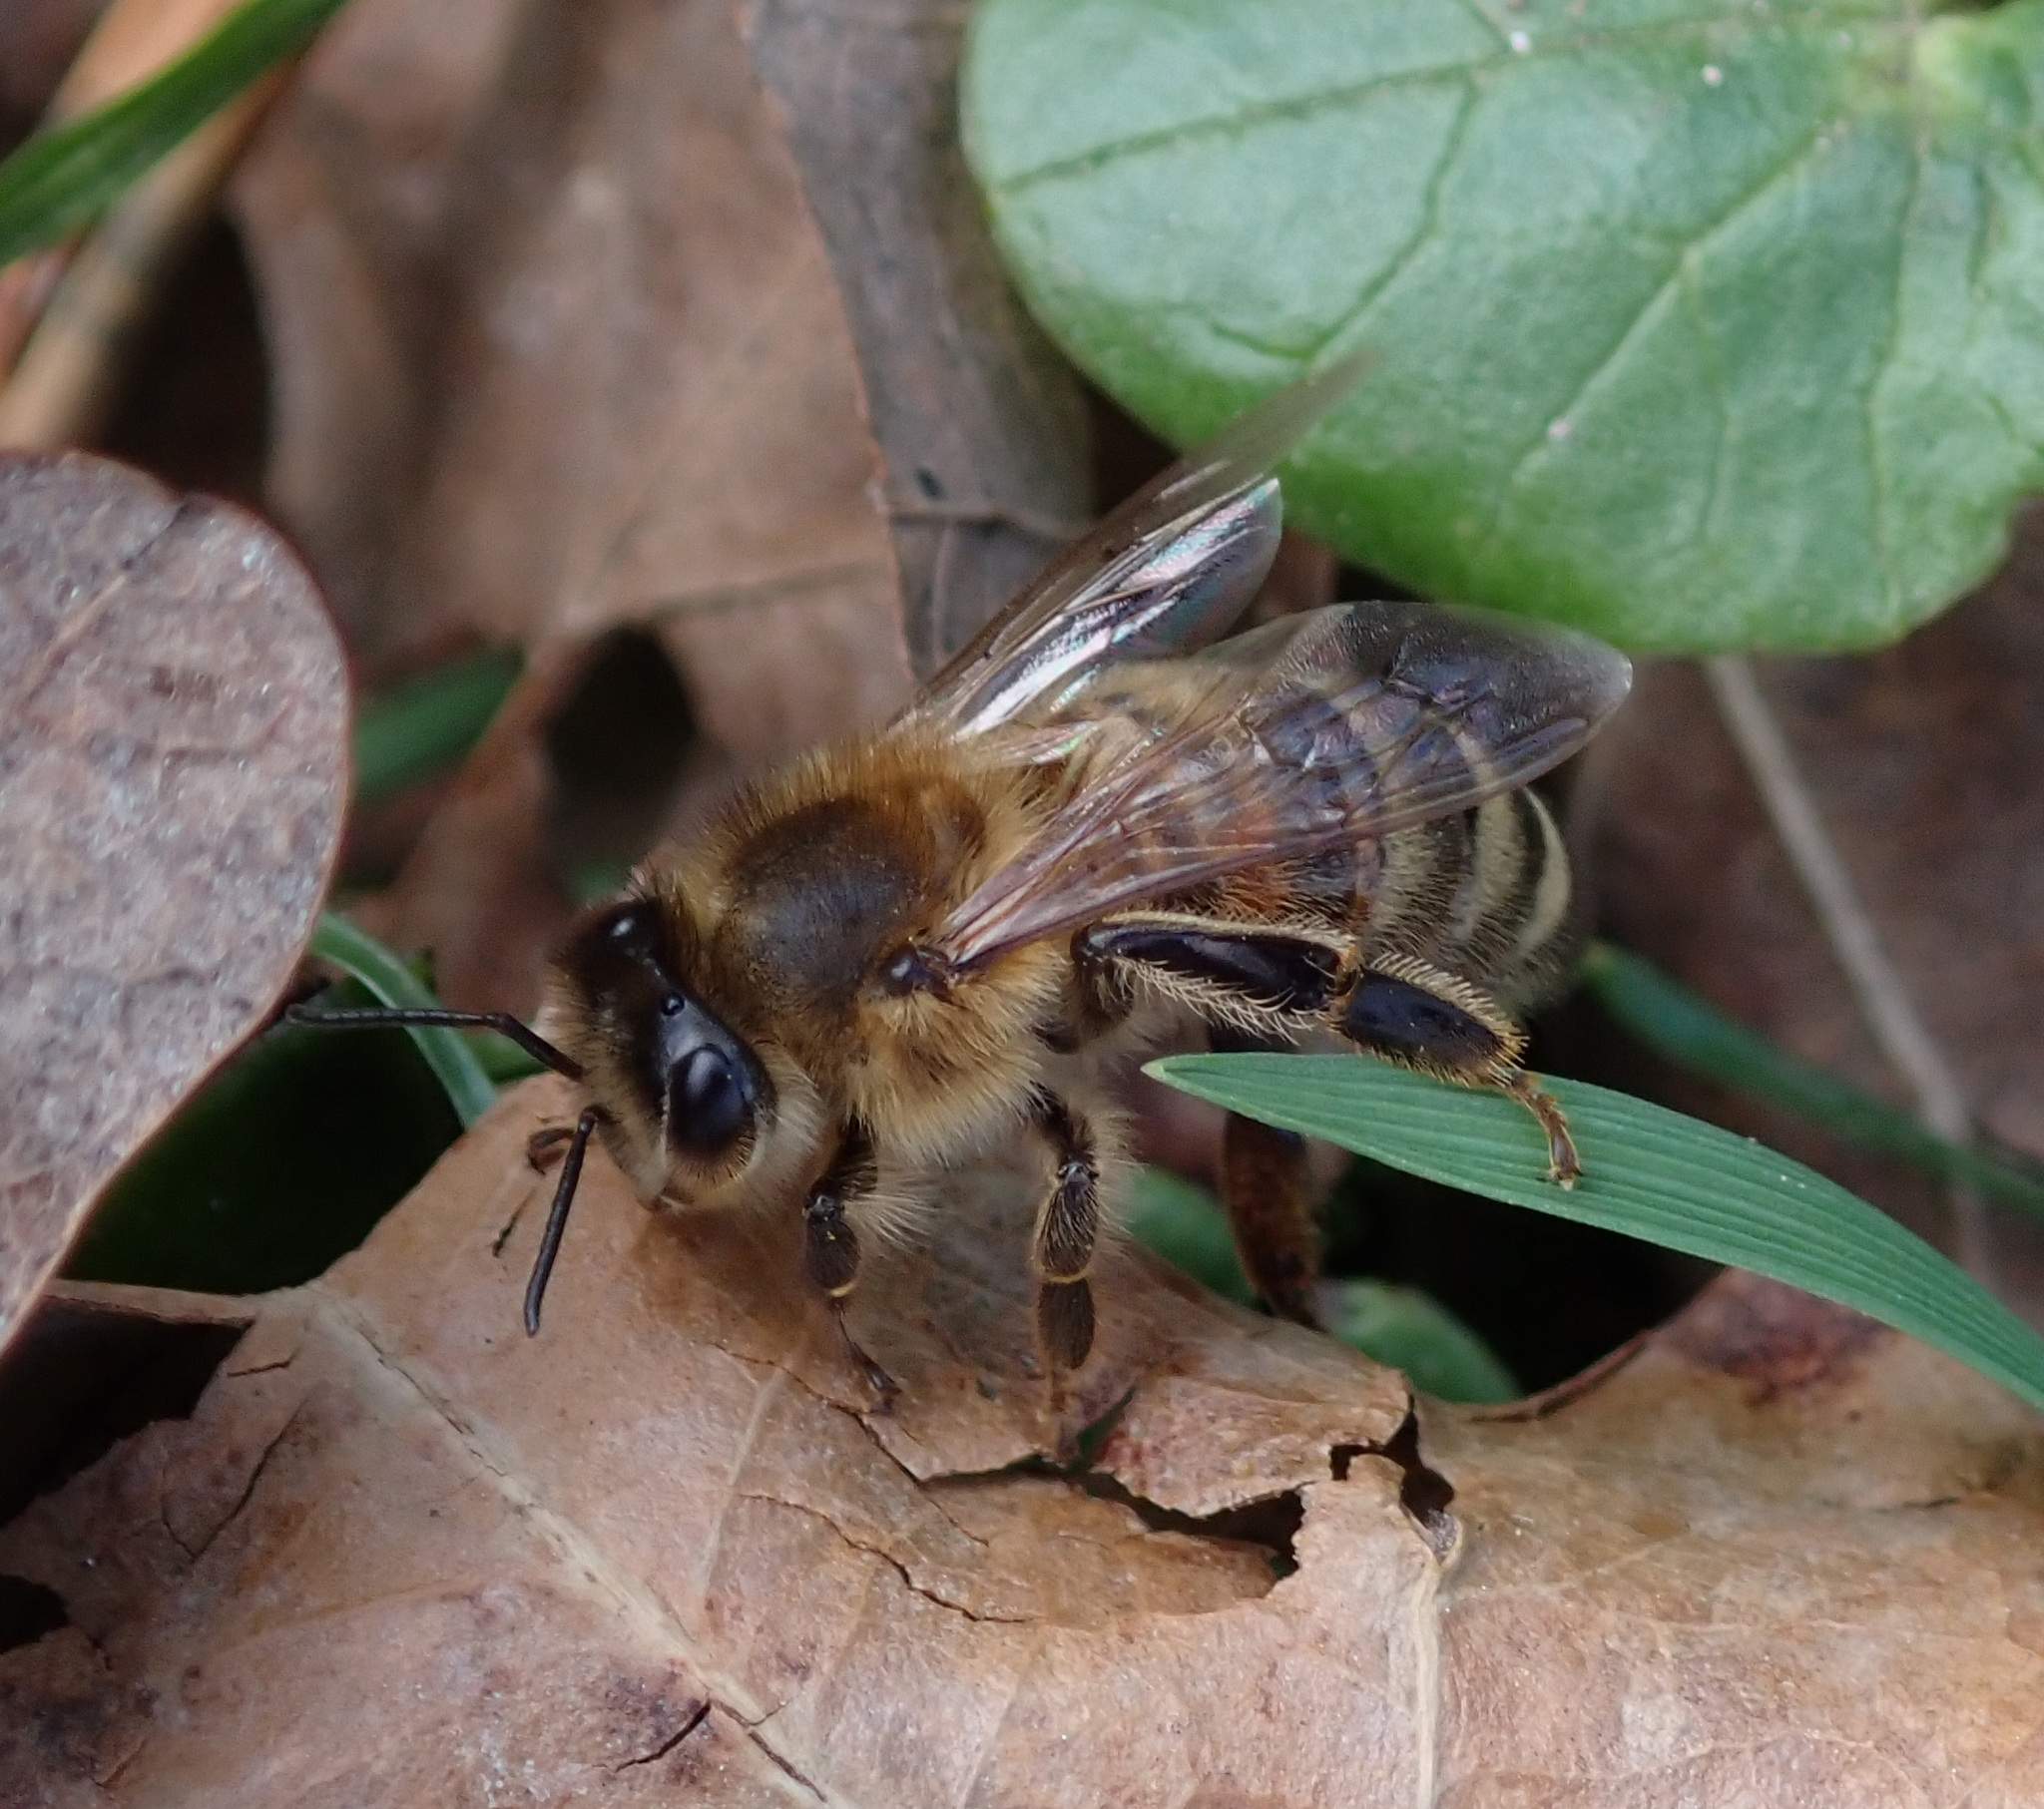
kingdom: Animalia
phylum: Arthropoda
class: Insecta
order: Hymenoptera
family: Apidae
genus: Apis
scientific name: Apis mellifera
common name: Honey bee
